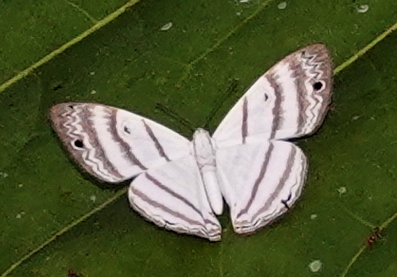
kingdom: Animalia
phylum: Arthropoda
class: Insecta
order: Lepidoptera
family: Riodinidae
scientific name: Riodinidae
